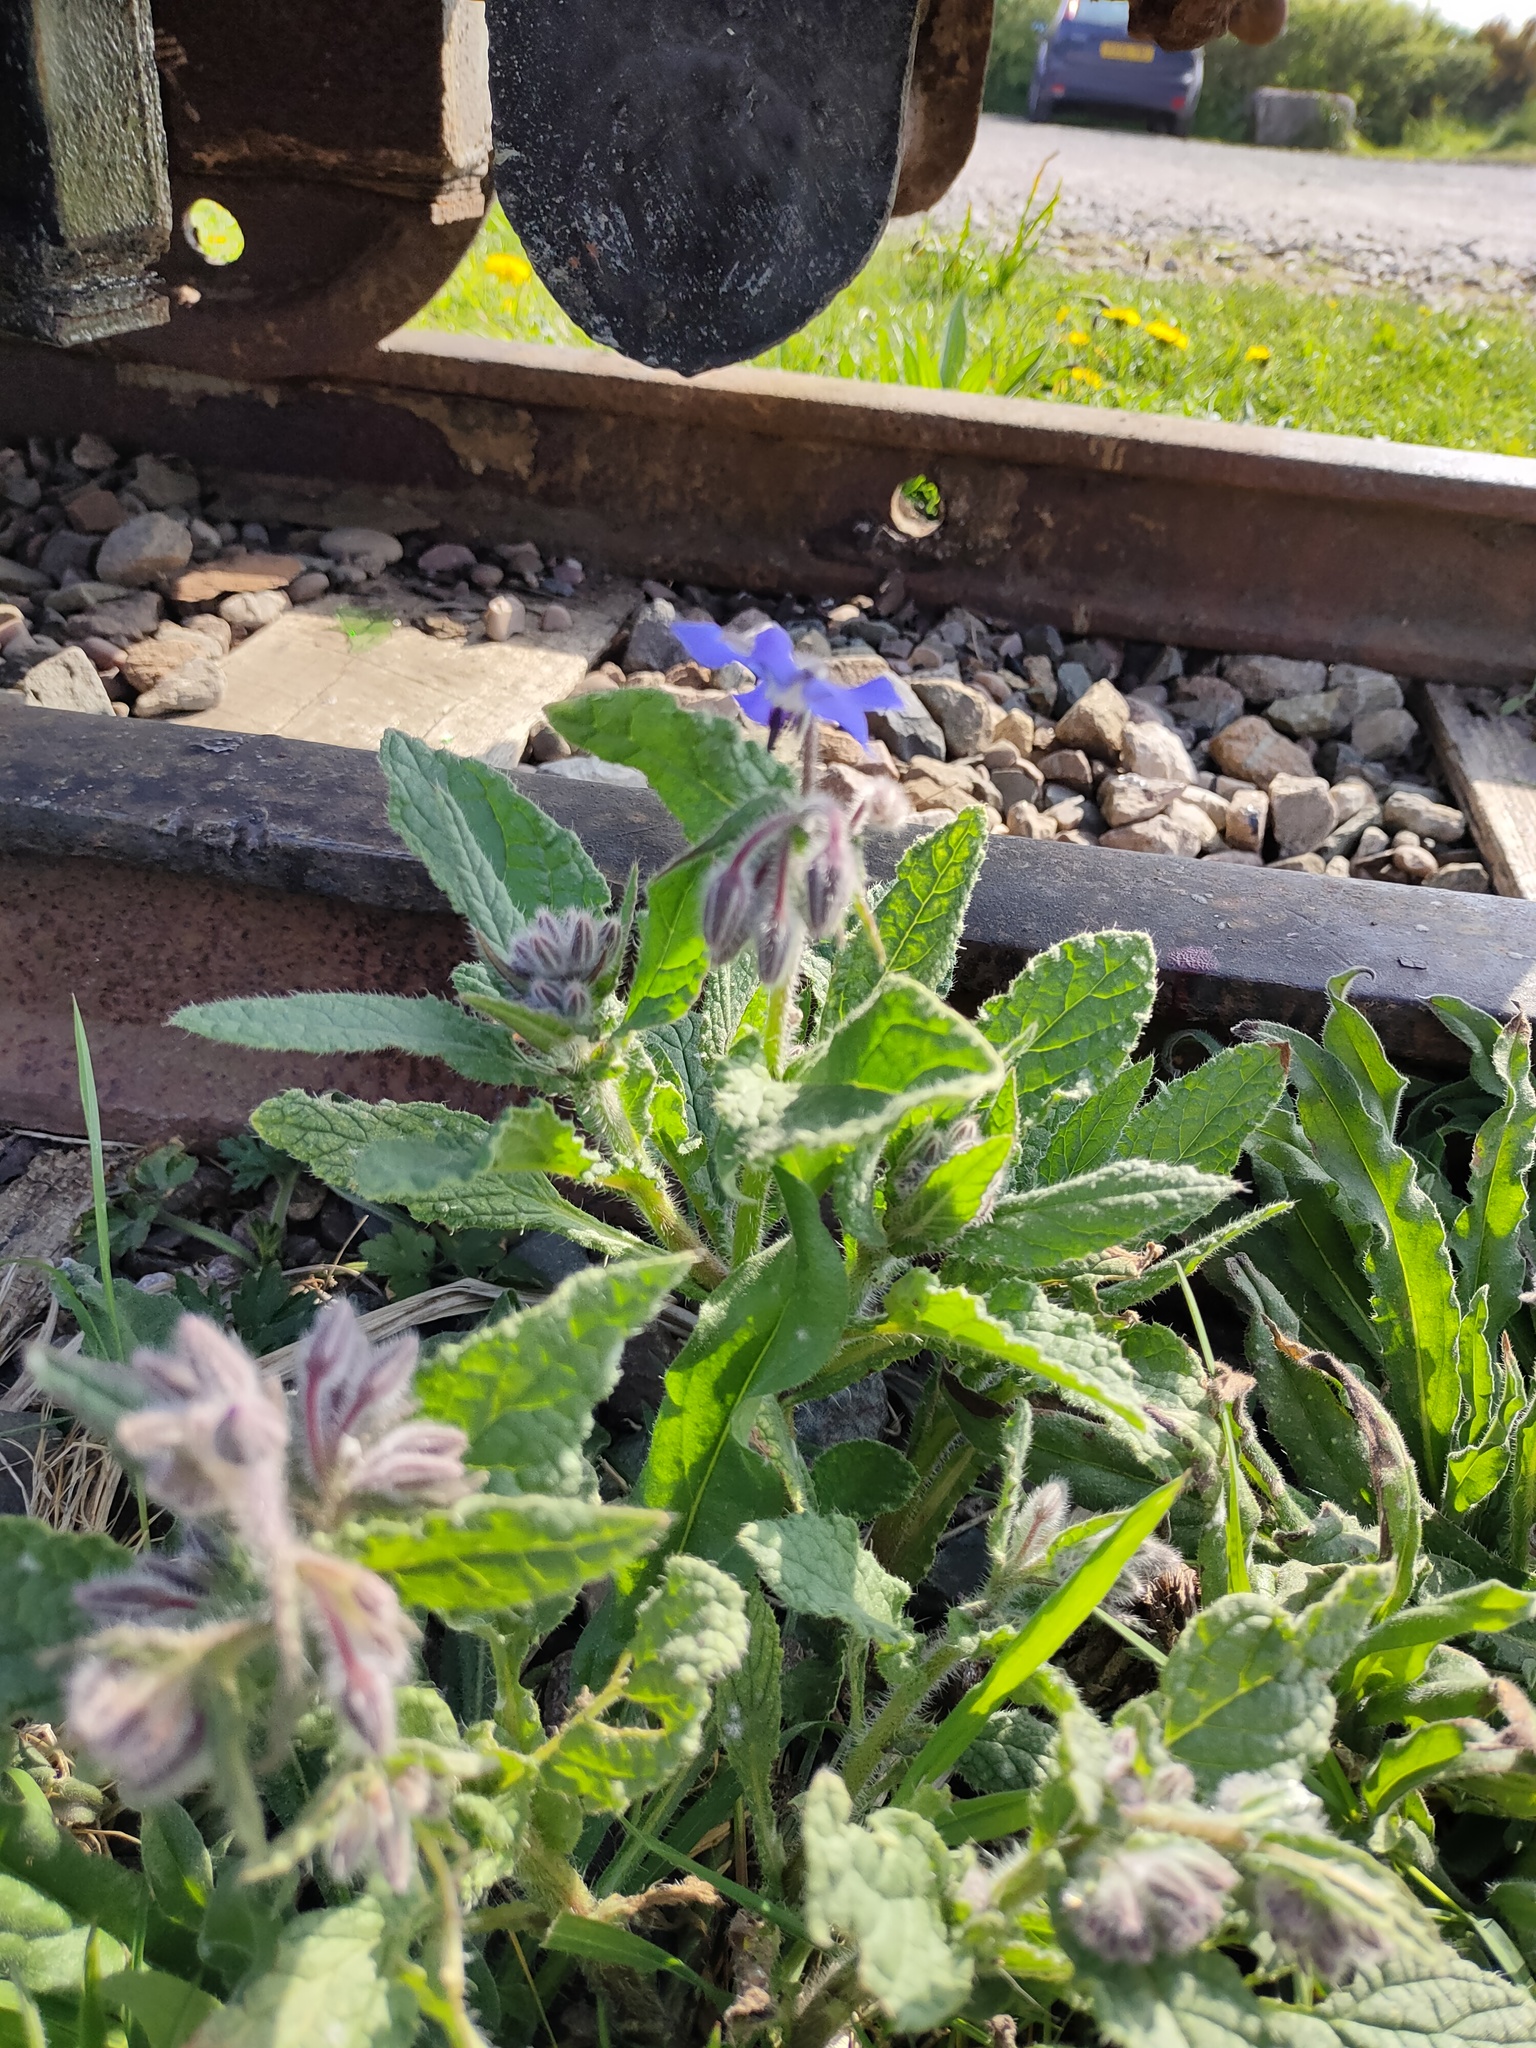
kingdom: Plantae
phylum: Tracheophyta
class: Magnoliopsida
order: Boraginales
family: Boraginaceae
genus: Borago
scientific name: Borago officinalis
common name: Borage
